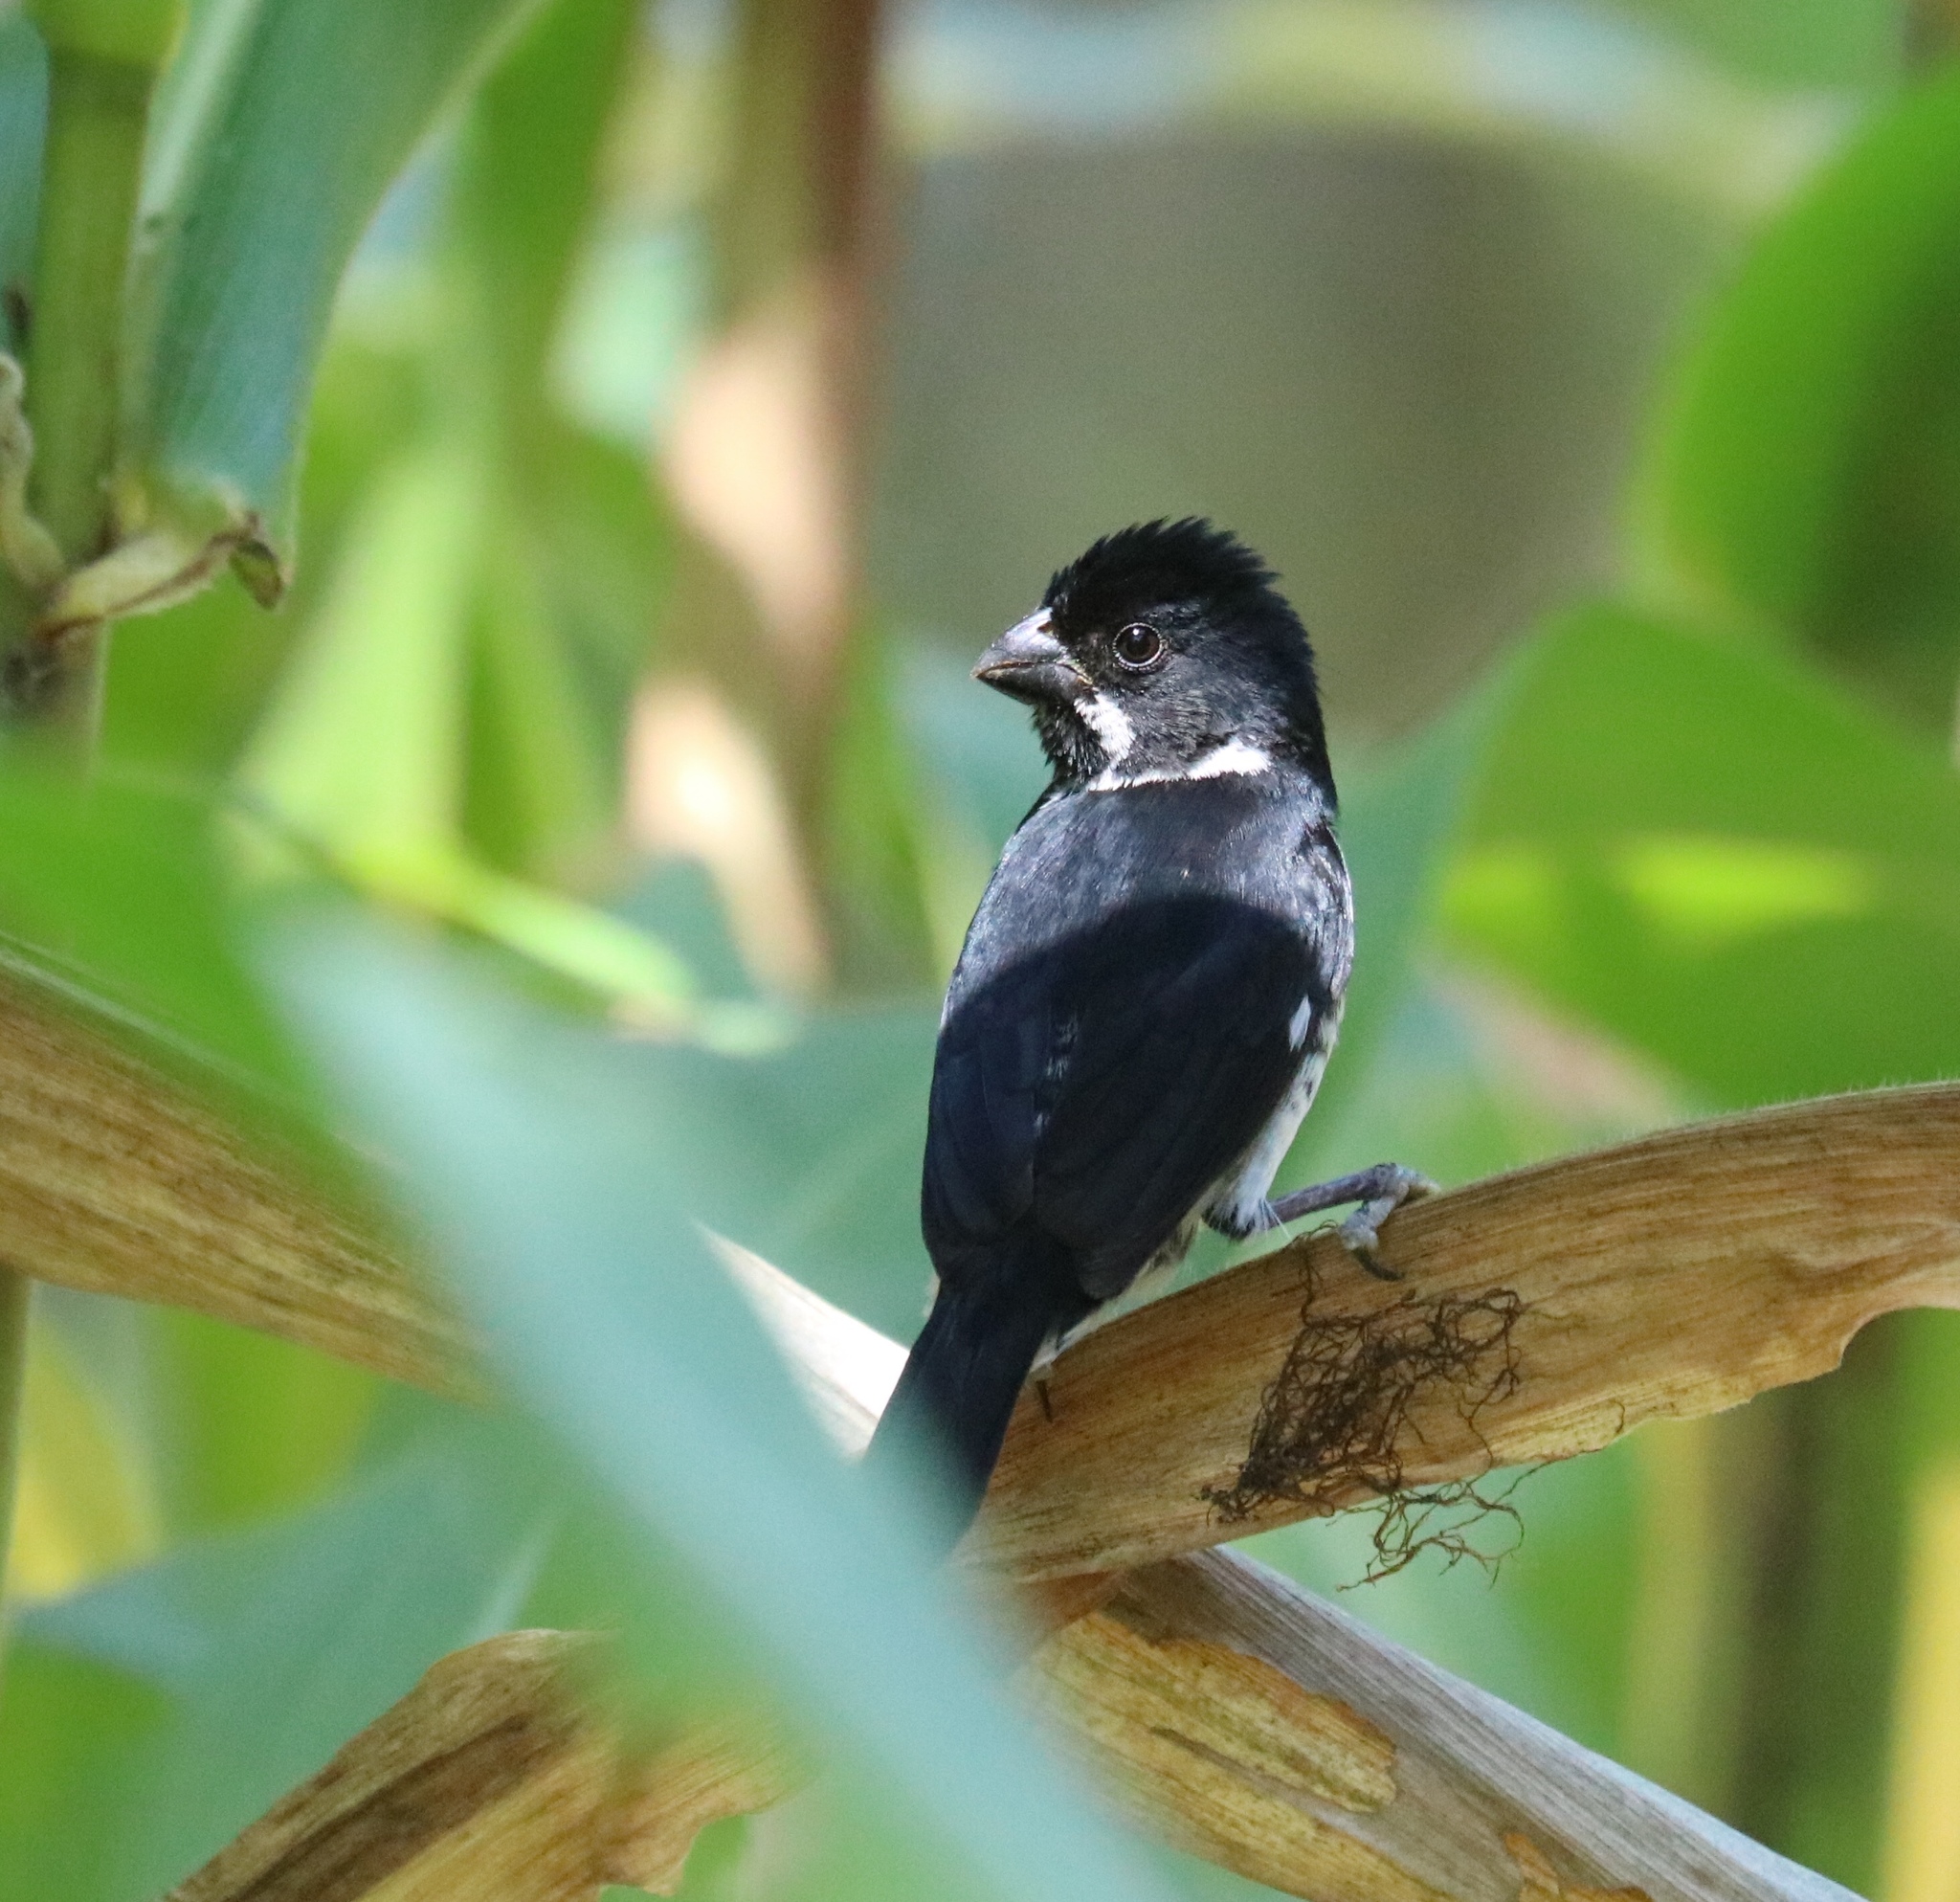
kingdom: Animalia
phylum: Chordata
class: Aves
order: Passeriformes
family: Thraupidae
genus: Sporophila
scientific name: Sporophila corvina
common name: Variable seedeater
